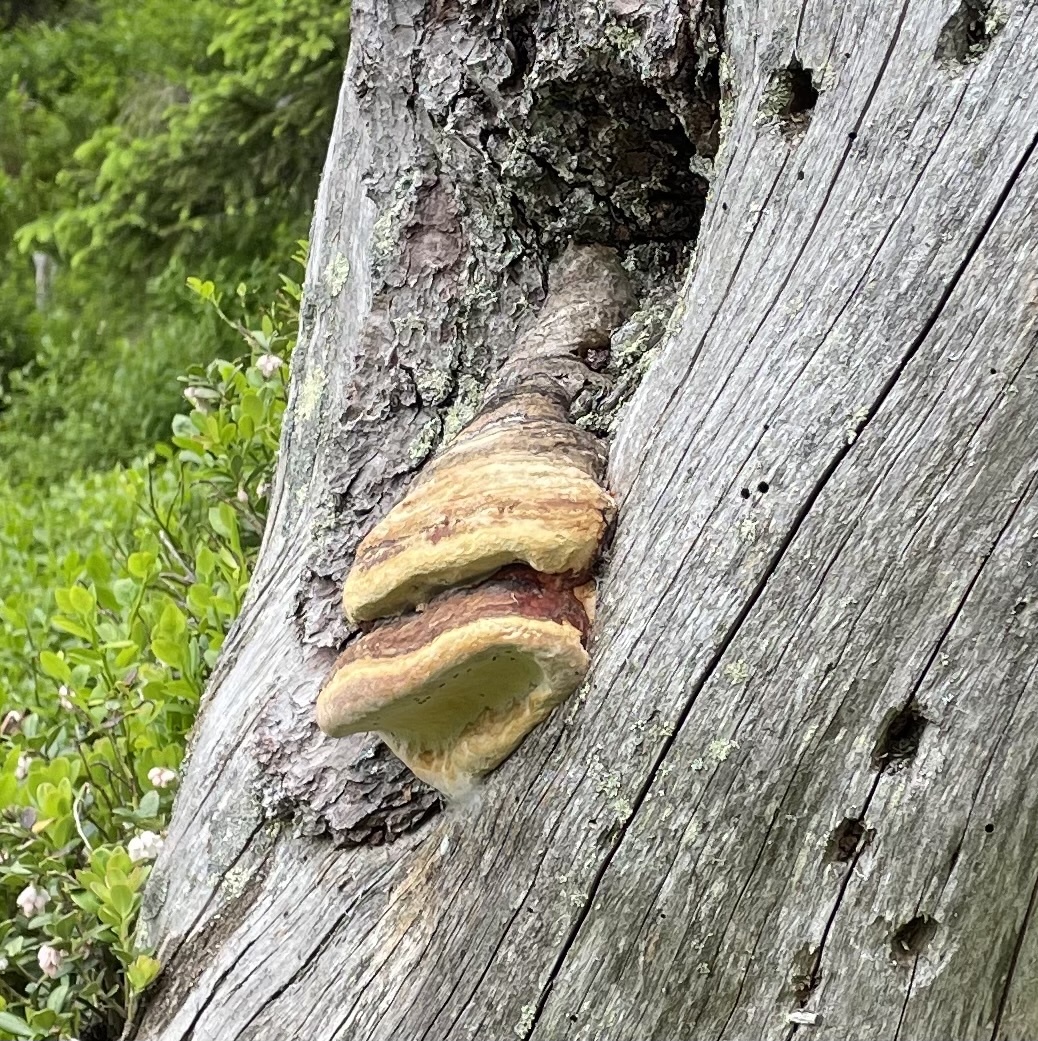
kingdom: Fungi
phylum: Basidiomycota
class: Agaricomycetes
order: Polyporales
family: Fomitopsidaceae
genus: Fomitopsis
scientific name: Fomitopsis pinicola
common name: Red-belted bracket
